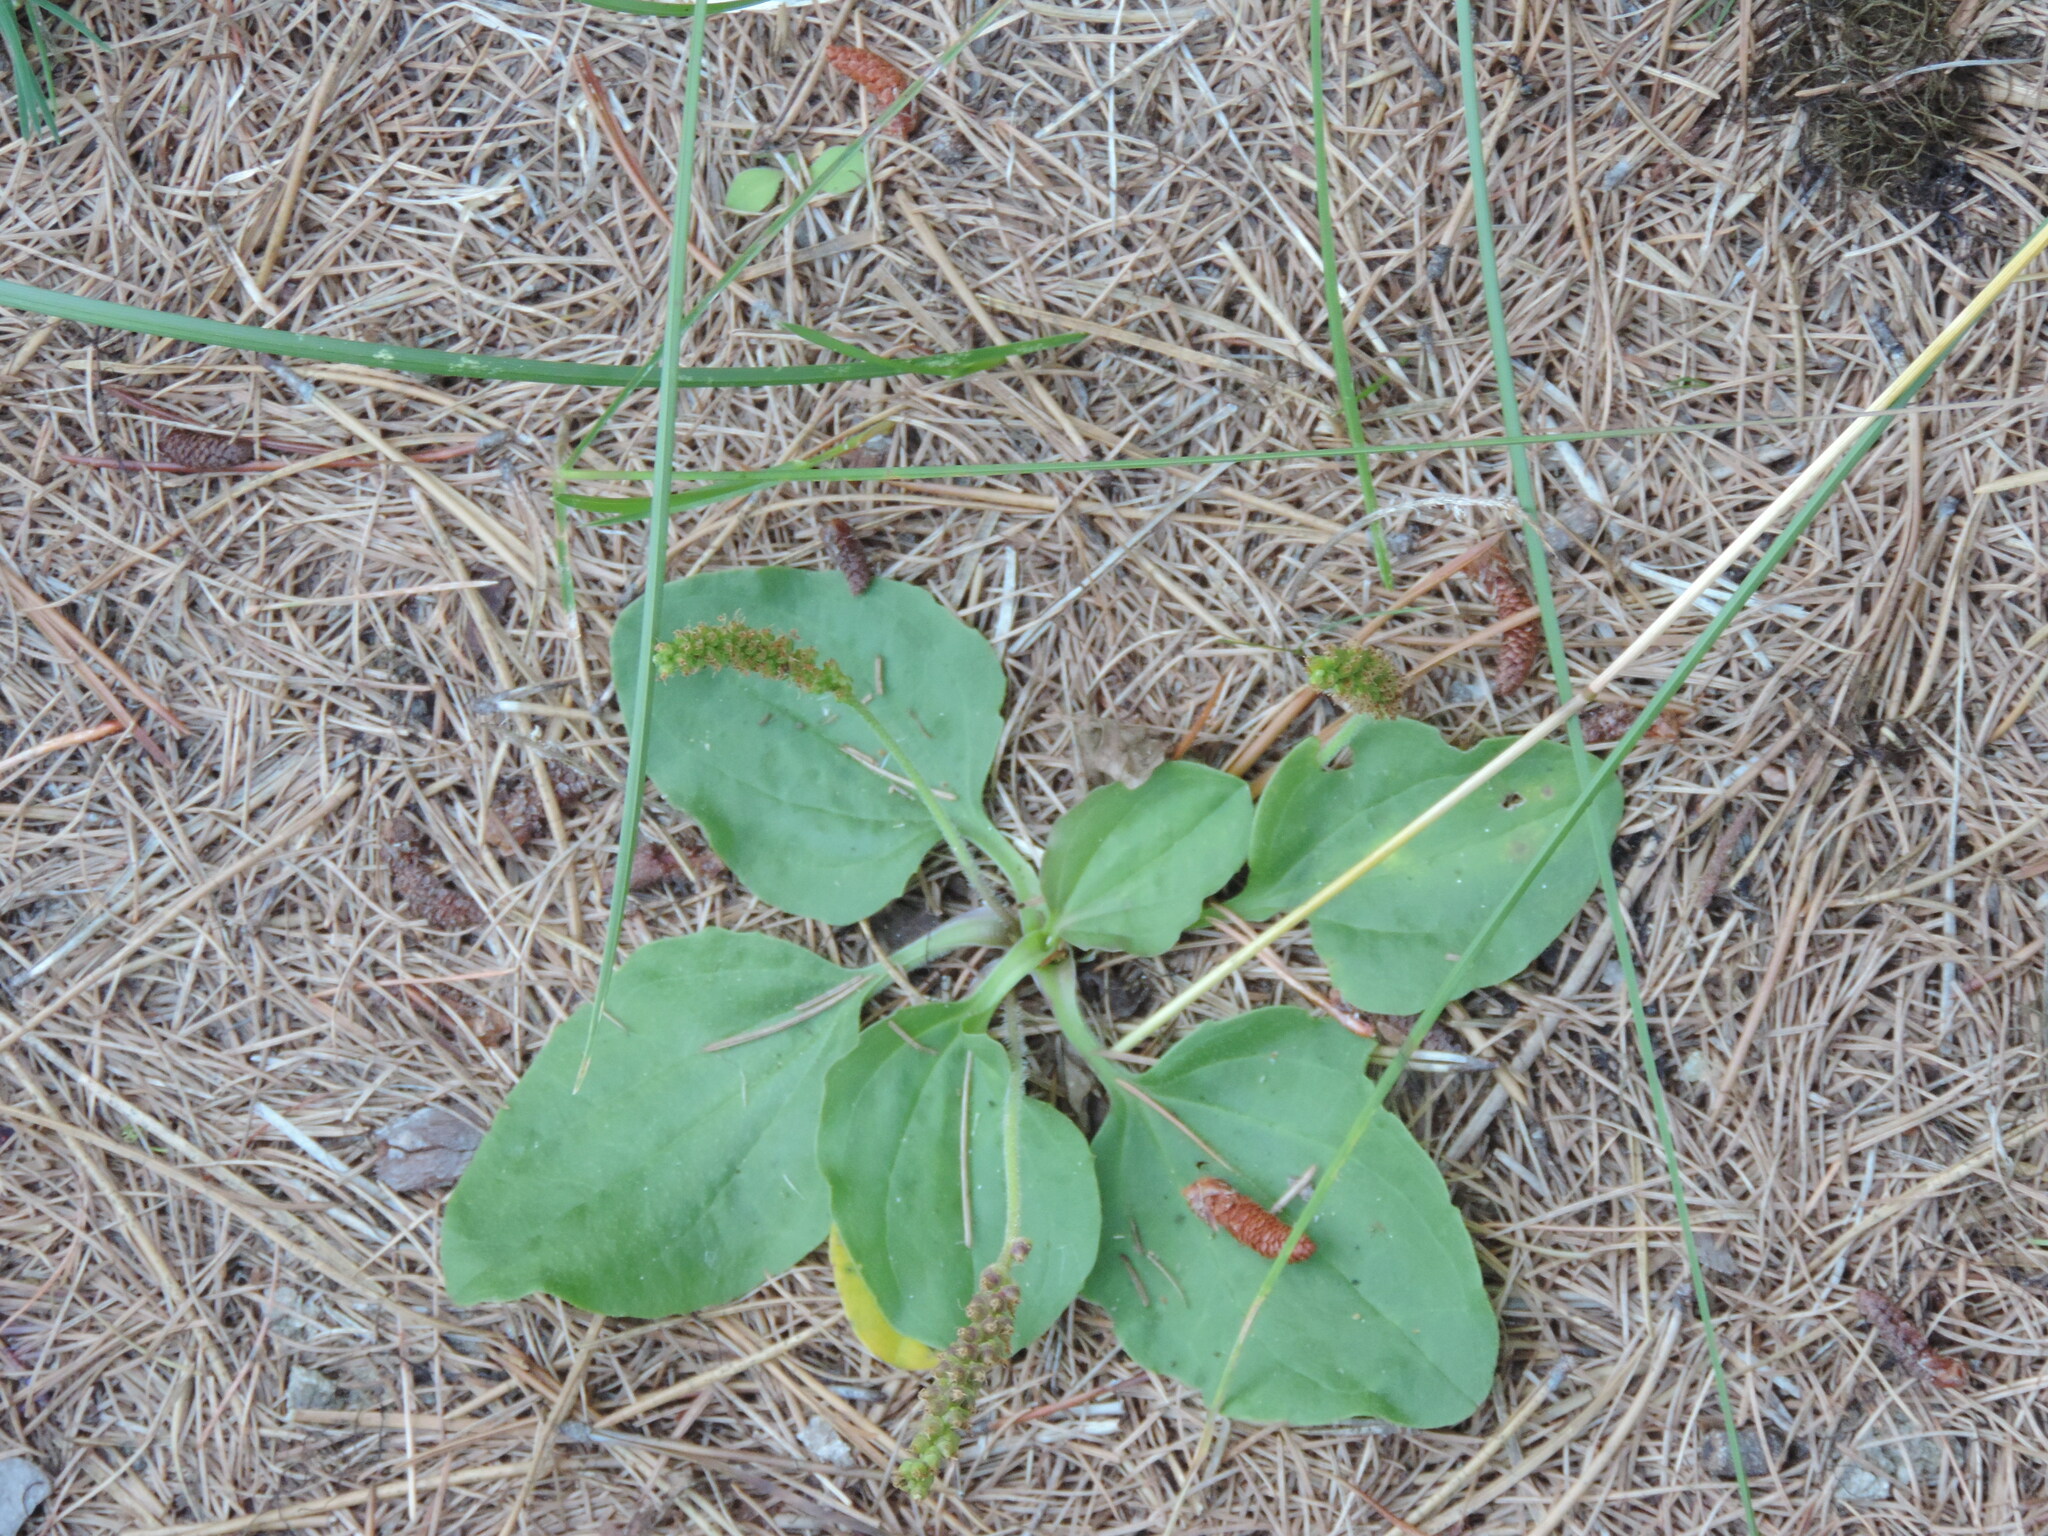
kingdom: Plantae
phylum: Tracheophyta
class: Magnoliopsida
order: Lamiales
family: Plantaginaceae
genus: Plantago
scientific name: Plantago major
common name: Common plantain
